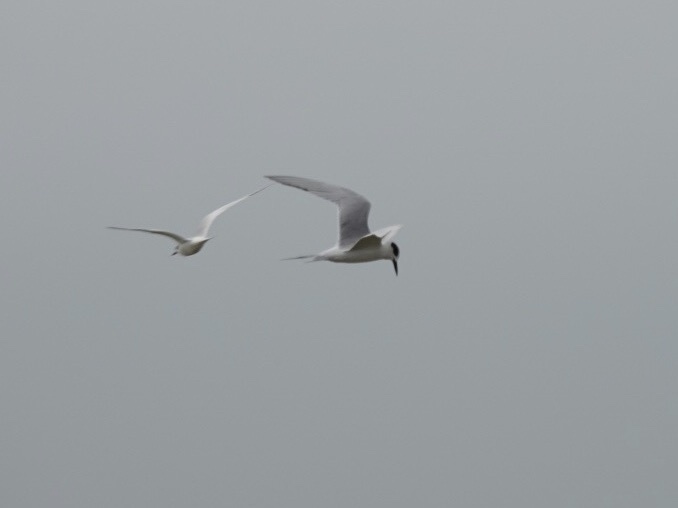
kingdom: Animalia
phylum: Chordata
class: Aves
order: Charadriiformes
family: Laridae
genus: Sterna
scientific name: Sterna forsteri
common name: Forster's tern
